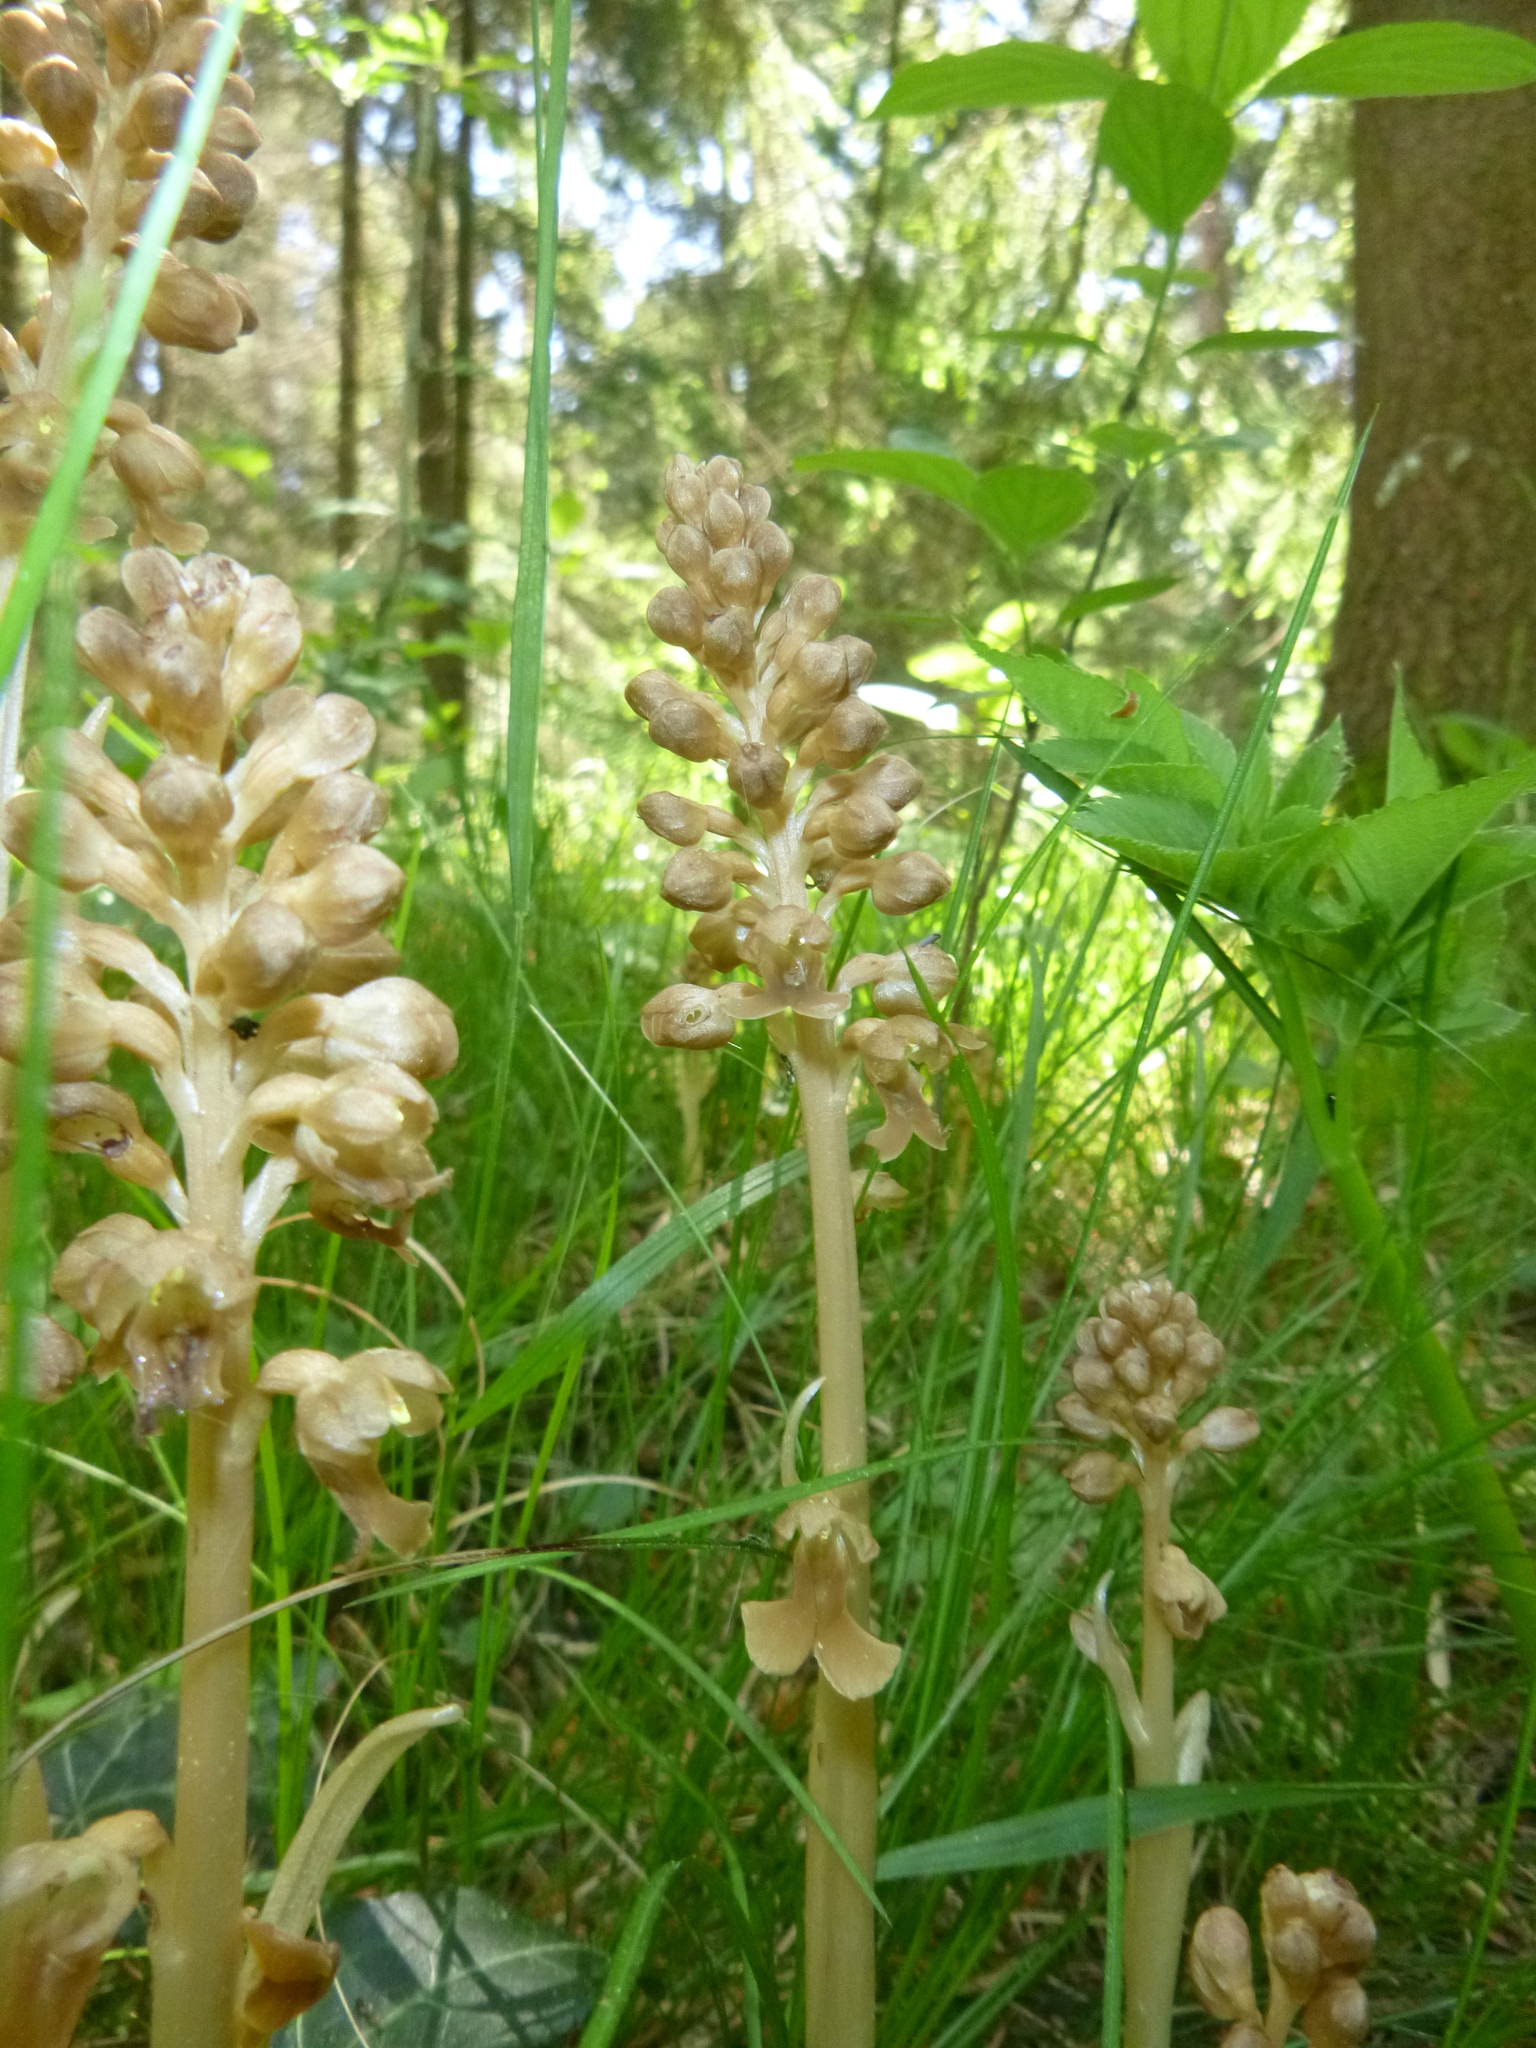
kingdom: Plantae
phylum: Tracheophyta
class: Liliopsida
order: Asparagales
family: Orchidaceae
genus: Neottia
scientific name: Neottia nidus-avis
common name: Bird's-nest orchid
